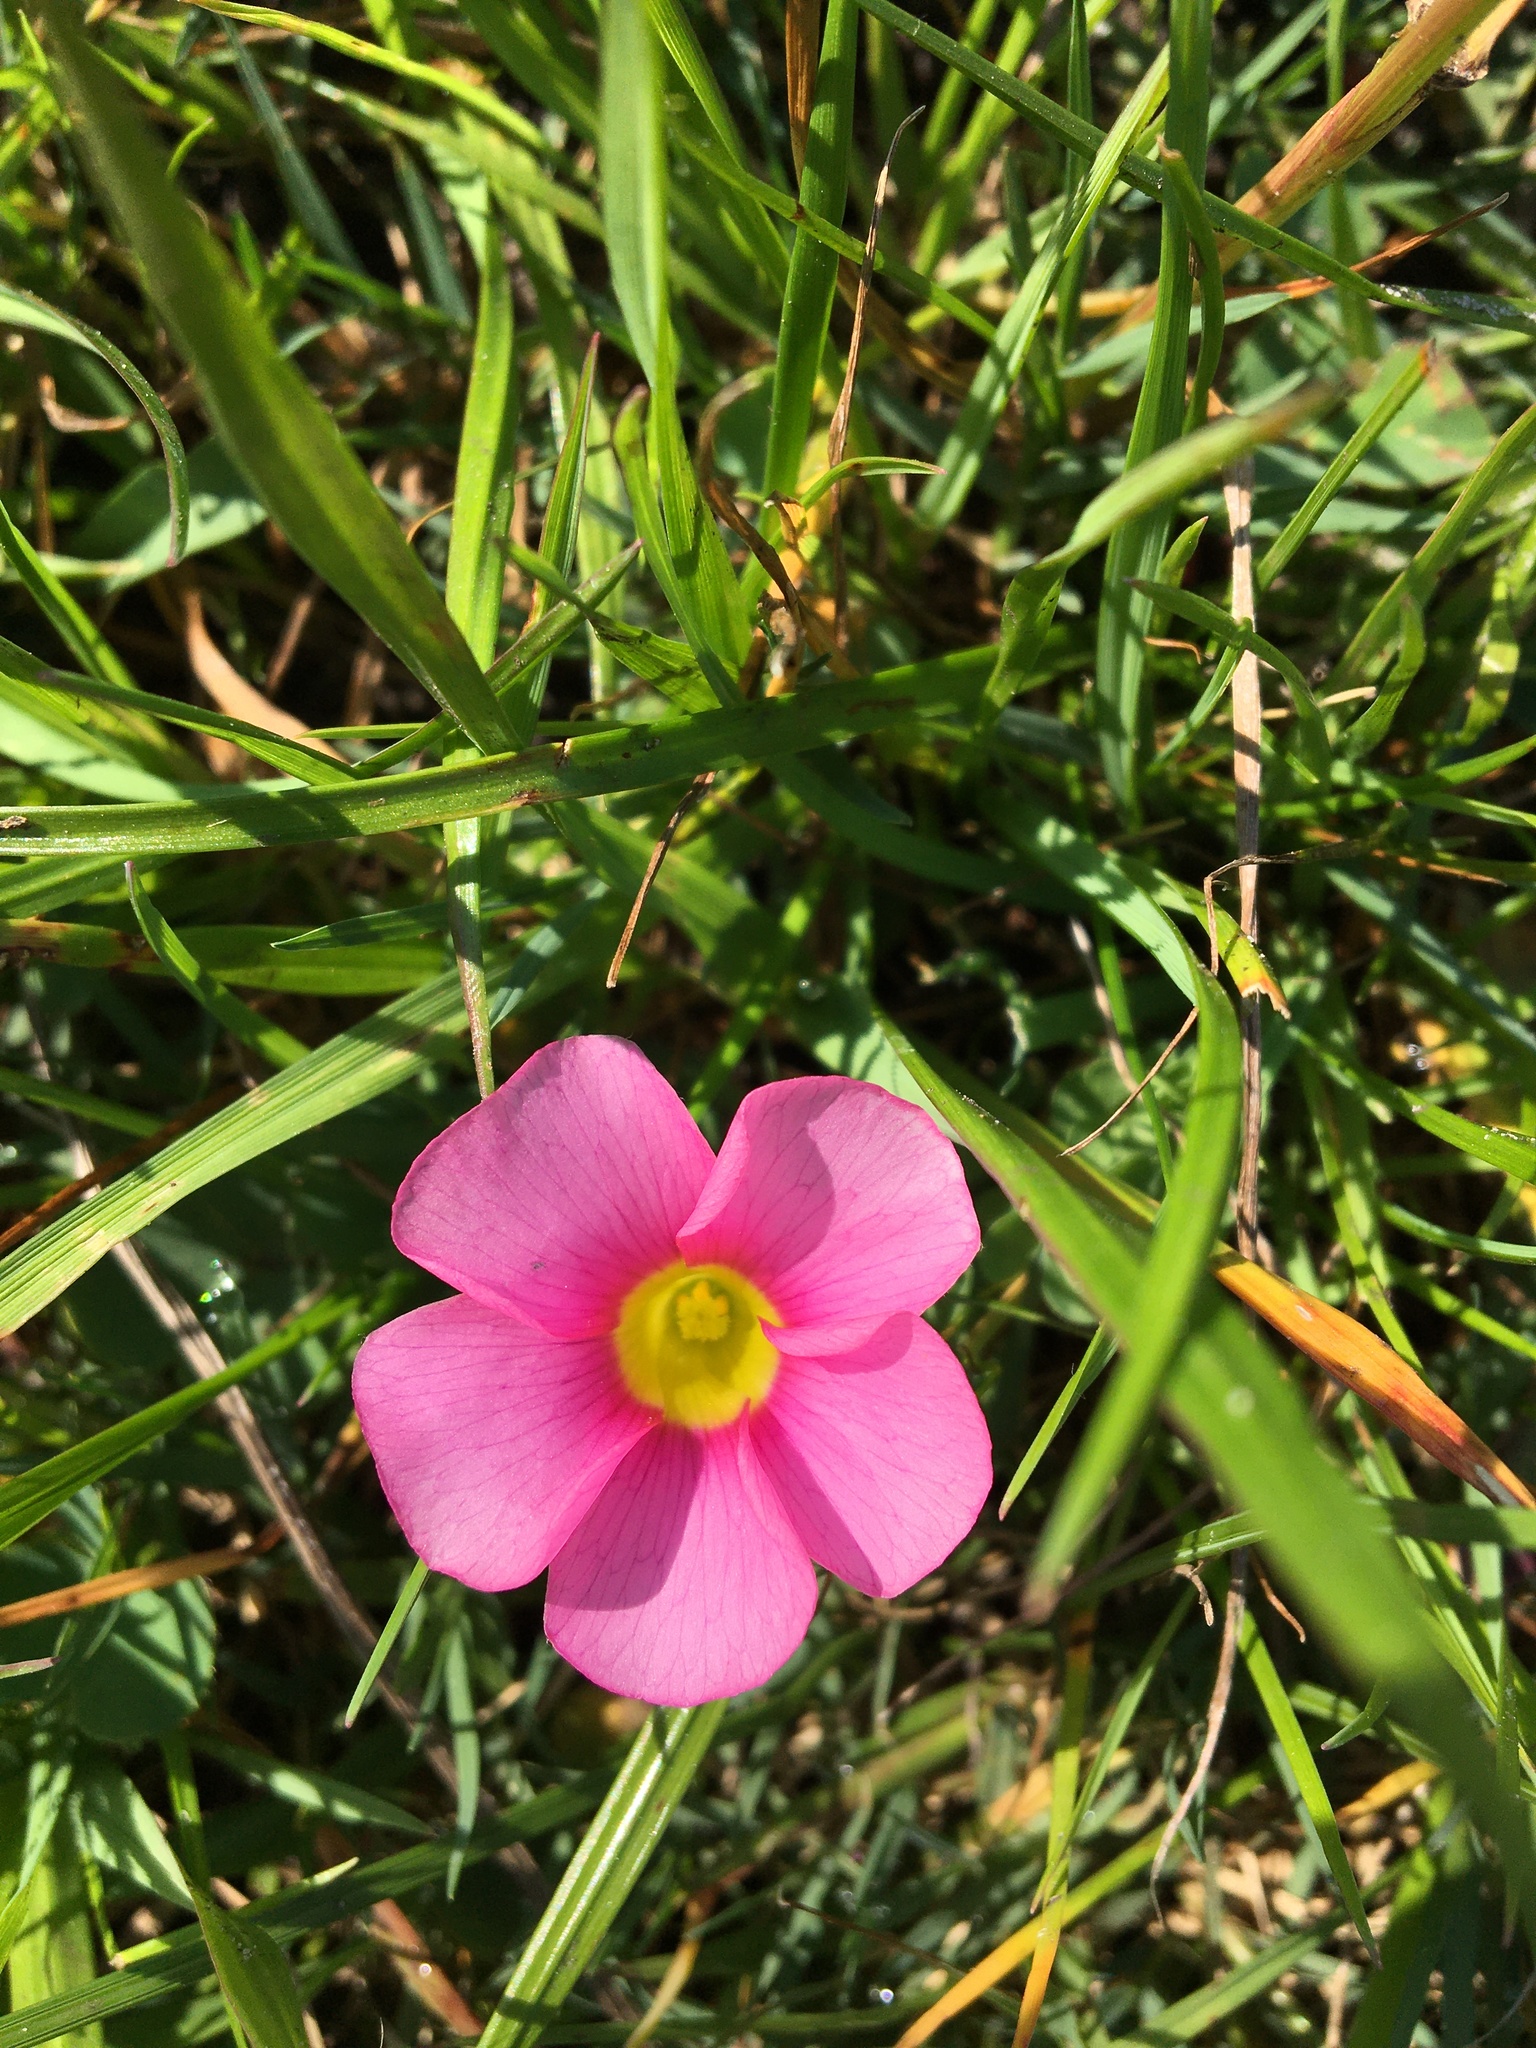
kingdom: Plantae
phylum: Tracheophyta
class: Magnoliopsida
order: Oxalidales
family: Oxalidaceae
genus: Oxalis
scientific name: Oxalis purpurea
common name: Purple woodsorrel
